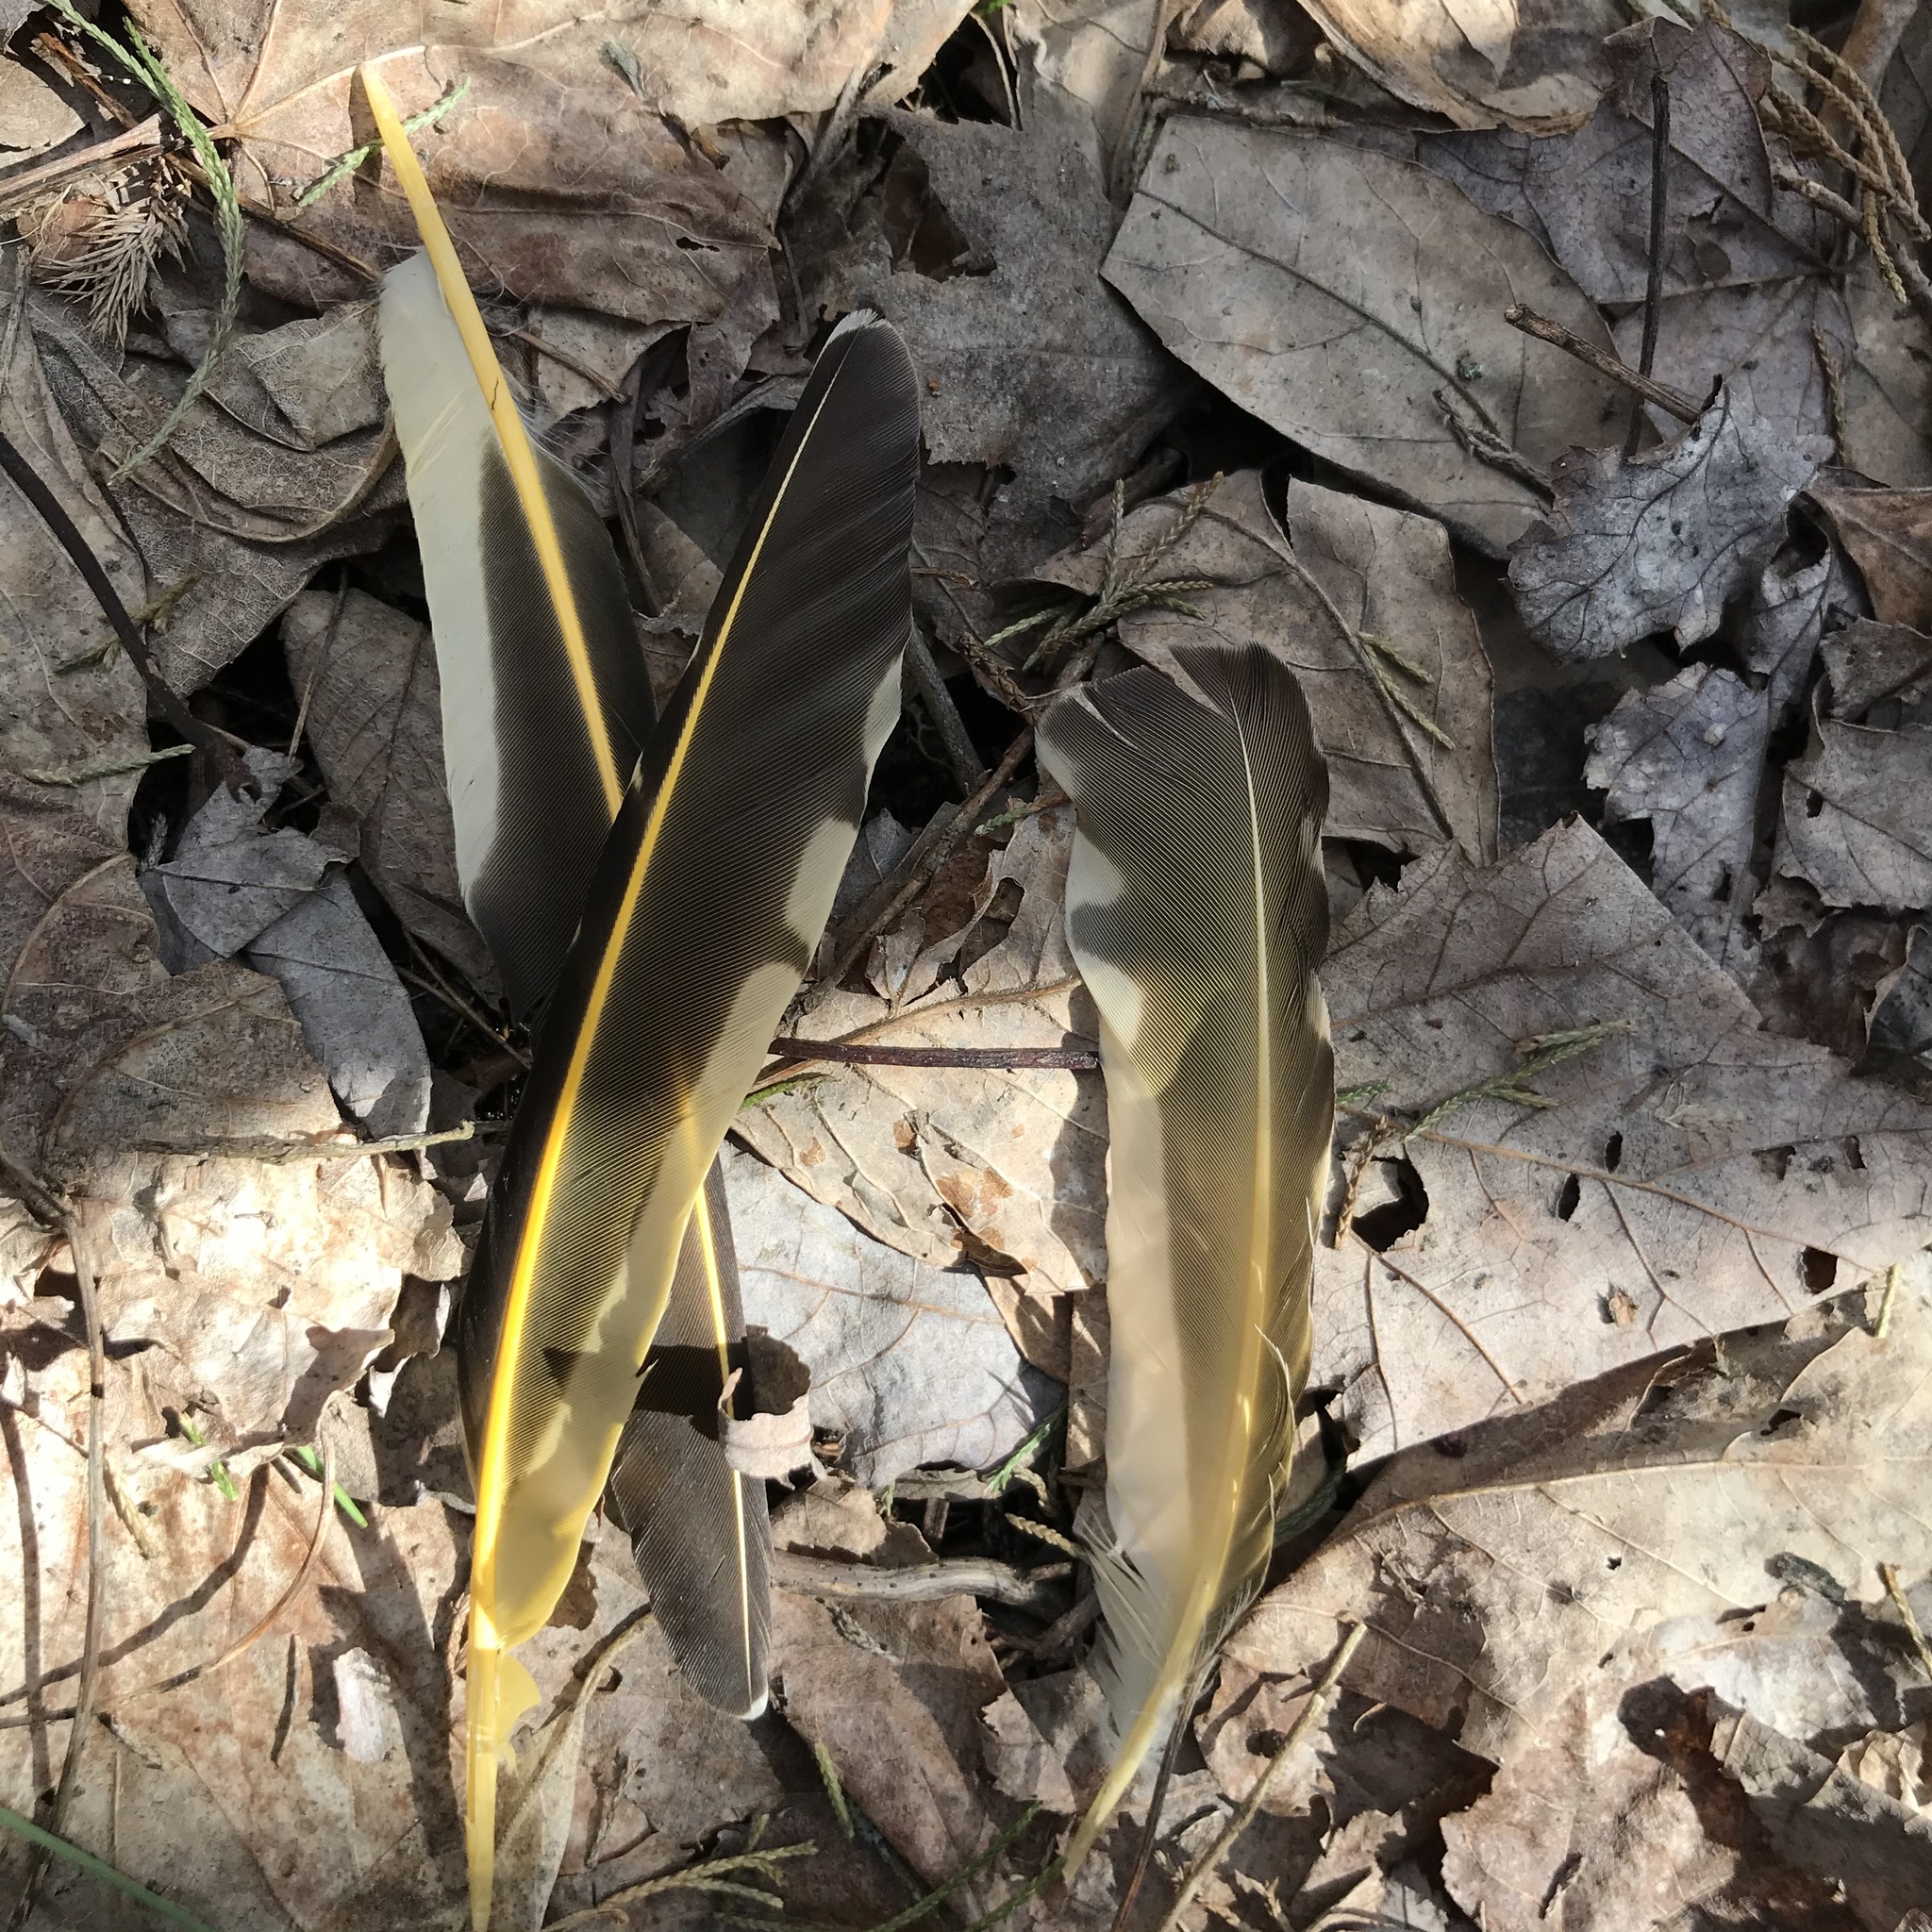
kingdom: Animalia
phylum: Chordata
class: Aves
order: Piciformes
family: Picidae
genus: Colaptes
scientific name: Colaptes auratus
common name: Northern flicker
